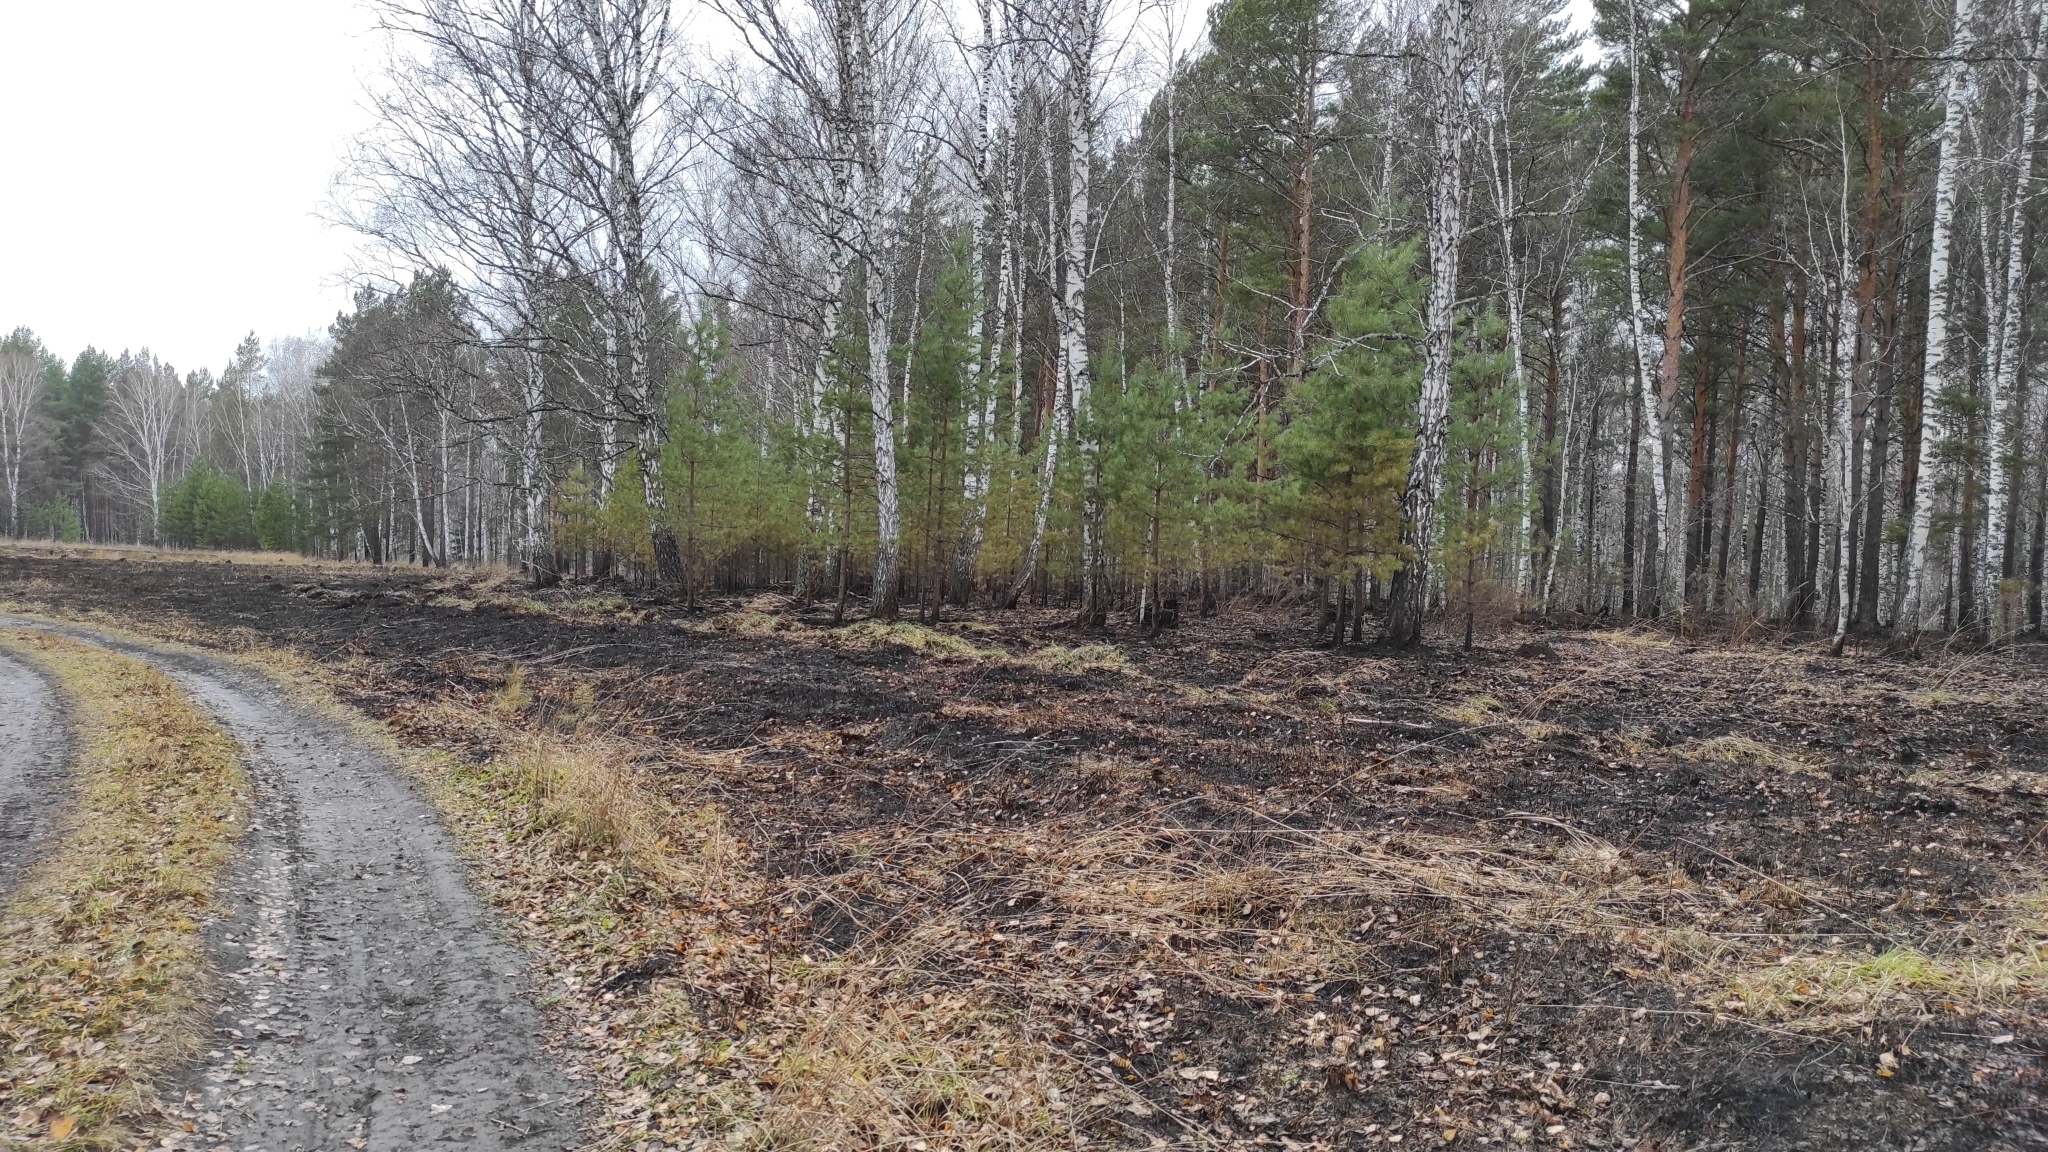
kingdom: Plantae
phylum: Tracheophyta
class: Pinopsida
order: Pinales
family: Pinaceae
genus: Pinus
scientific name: Pinus sylvestris
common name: Scots pine
